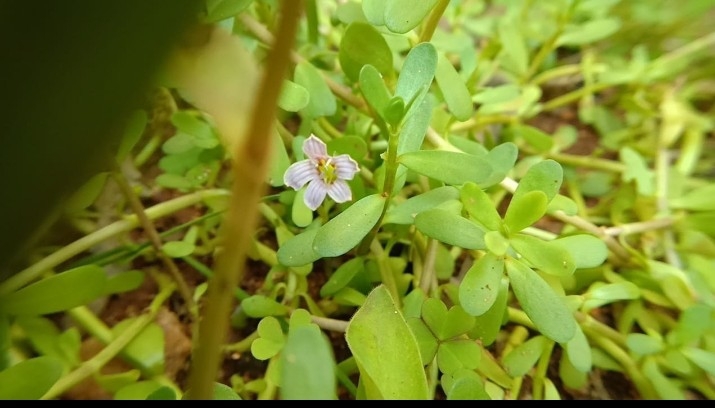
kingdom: Plantae
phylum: Tracheophyta
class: Magnoliopsida
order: Lamiales
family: Plantaginaceae
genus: Bacopa
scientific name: Bacopa monnieri
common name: Indian-pennywort
